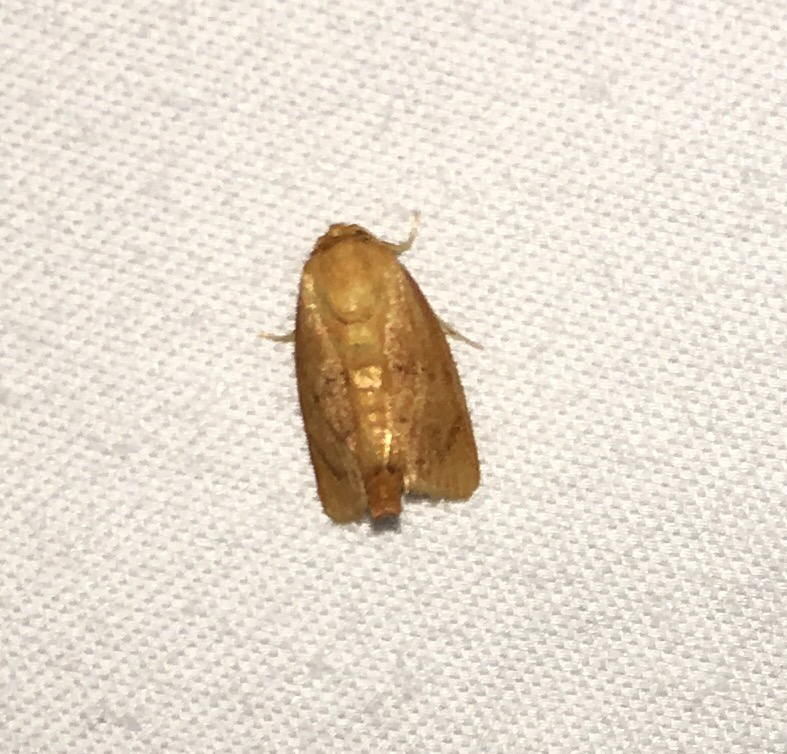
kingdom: Animalia
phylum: Arthropoda
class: Insecta
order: Lepidoptera
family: Limacodidae
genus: Tortricidia
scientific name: Tortricidia flexuosa
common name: Abbreviated button slug moth
